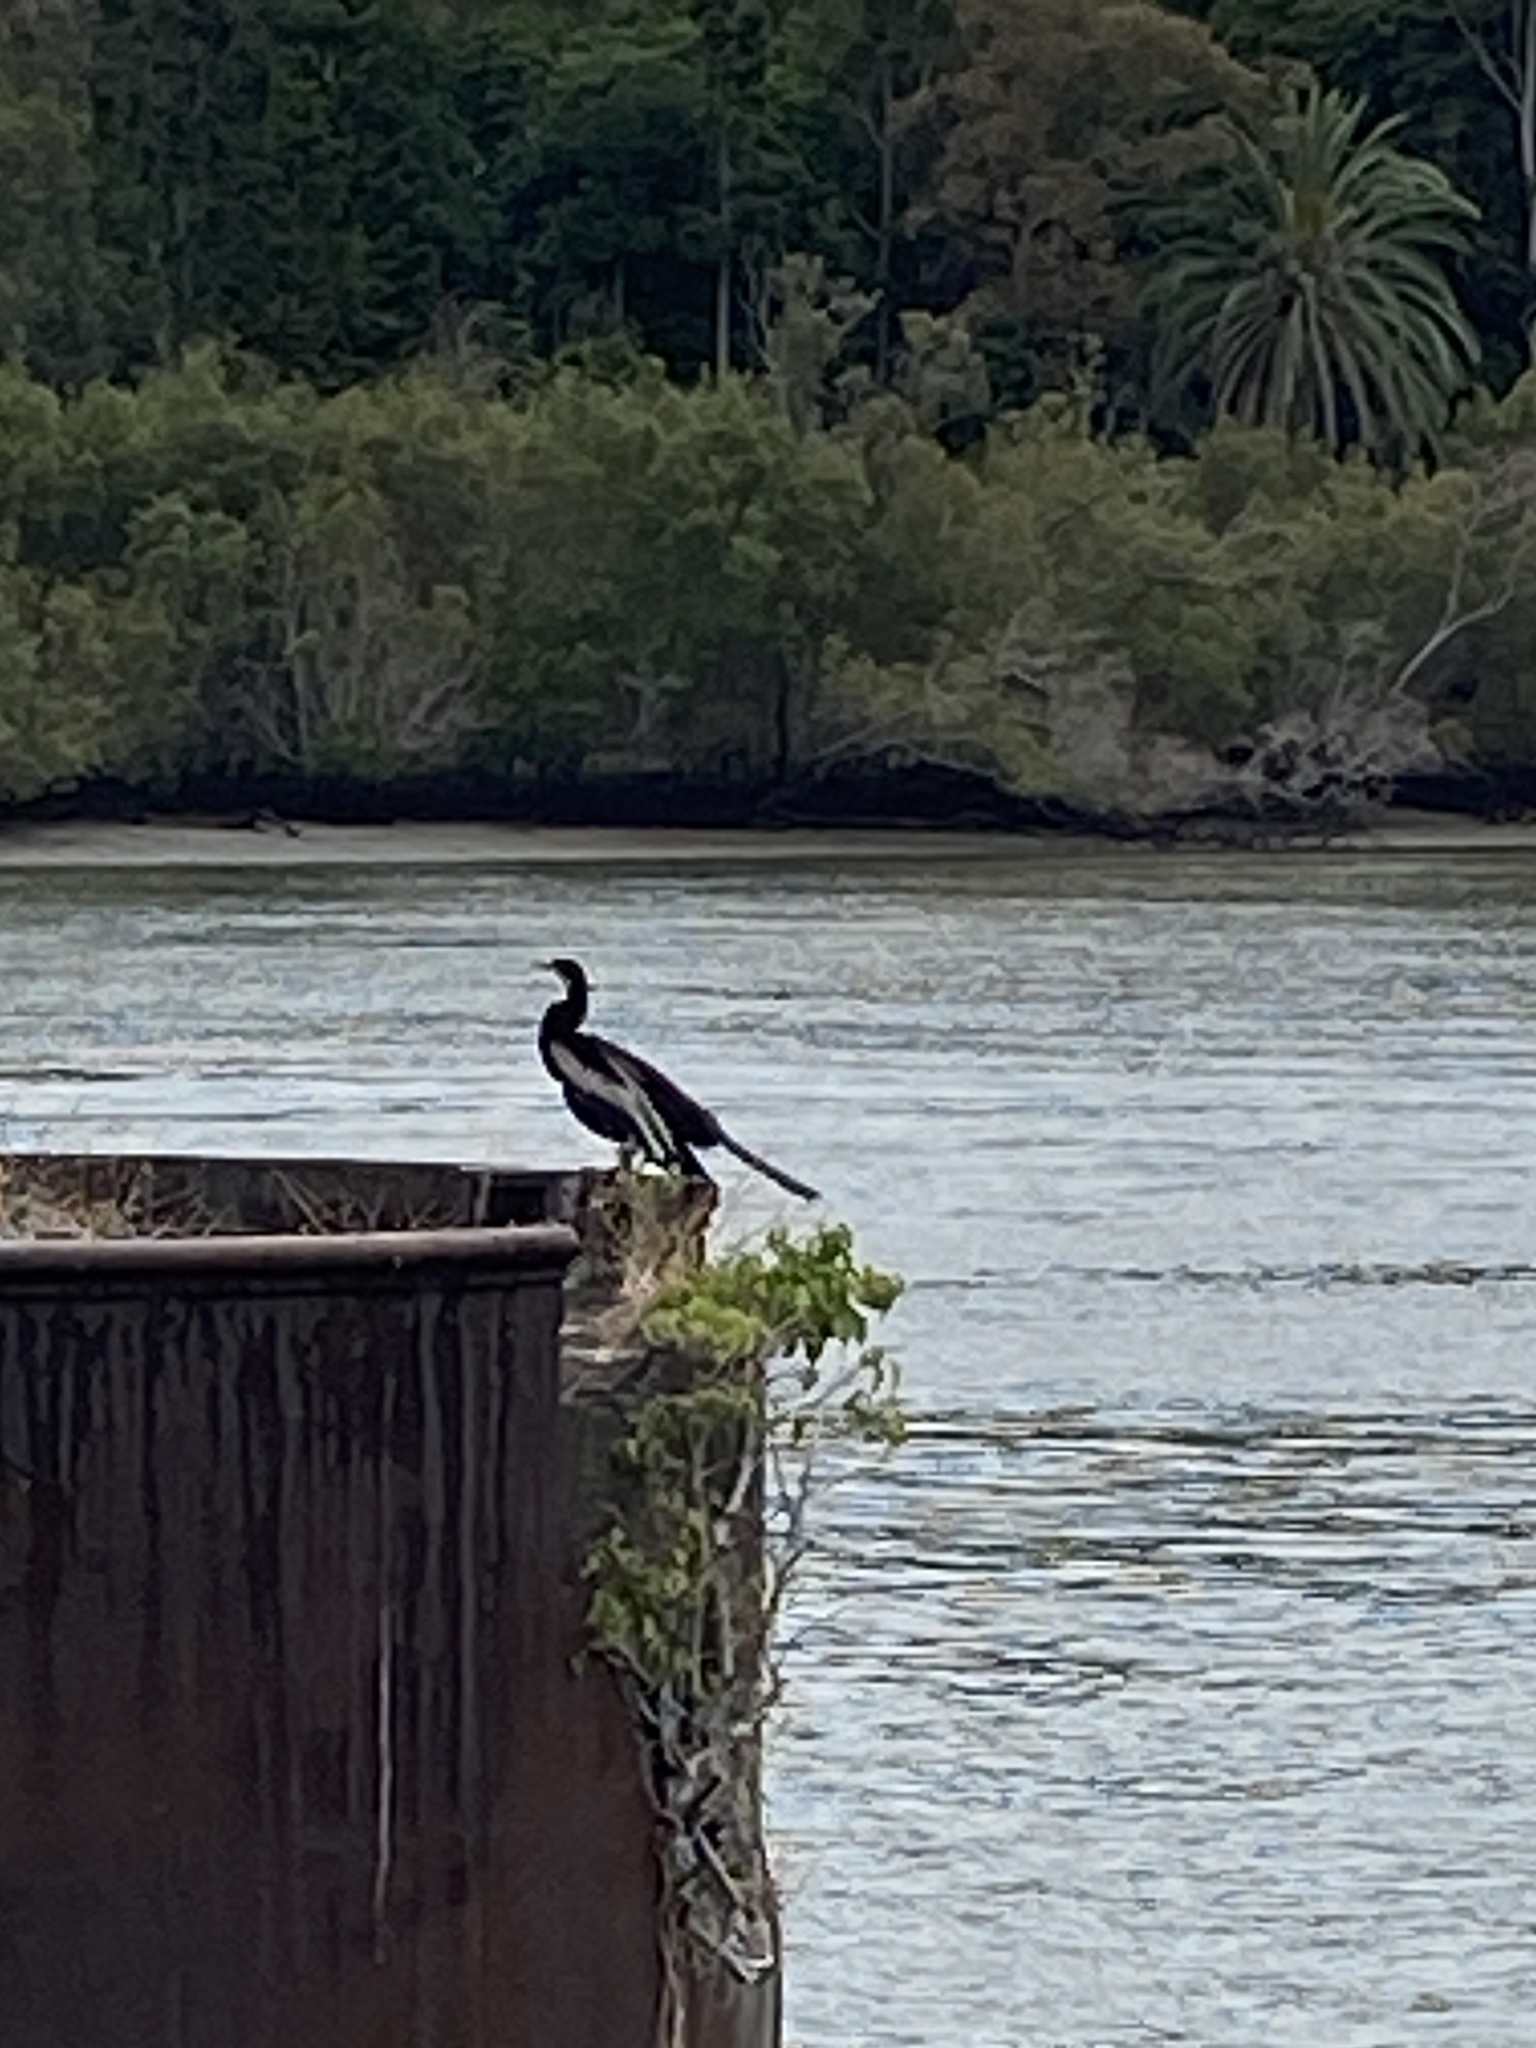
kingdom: Animalia
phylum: Chordata
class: Aves
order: Suliformes
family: Anhingidae
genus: Anhinga
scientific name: Anhinga novaehollandiae
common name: Australasian darter
